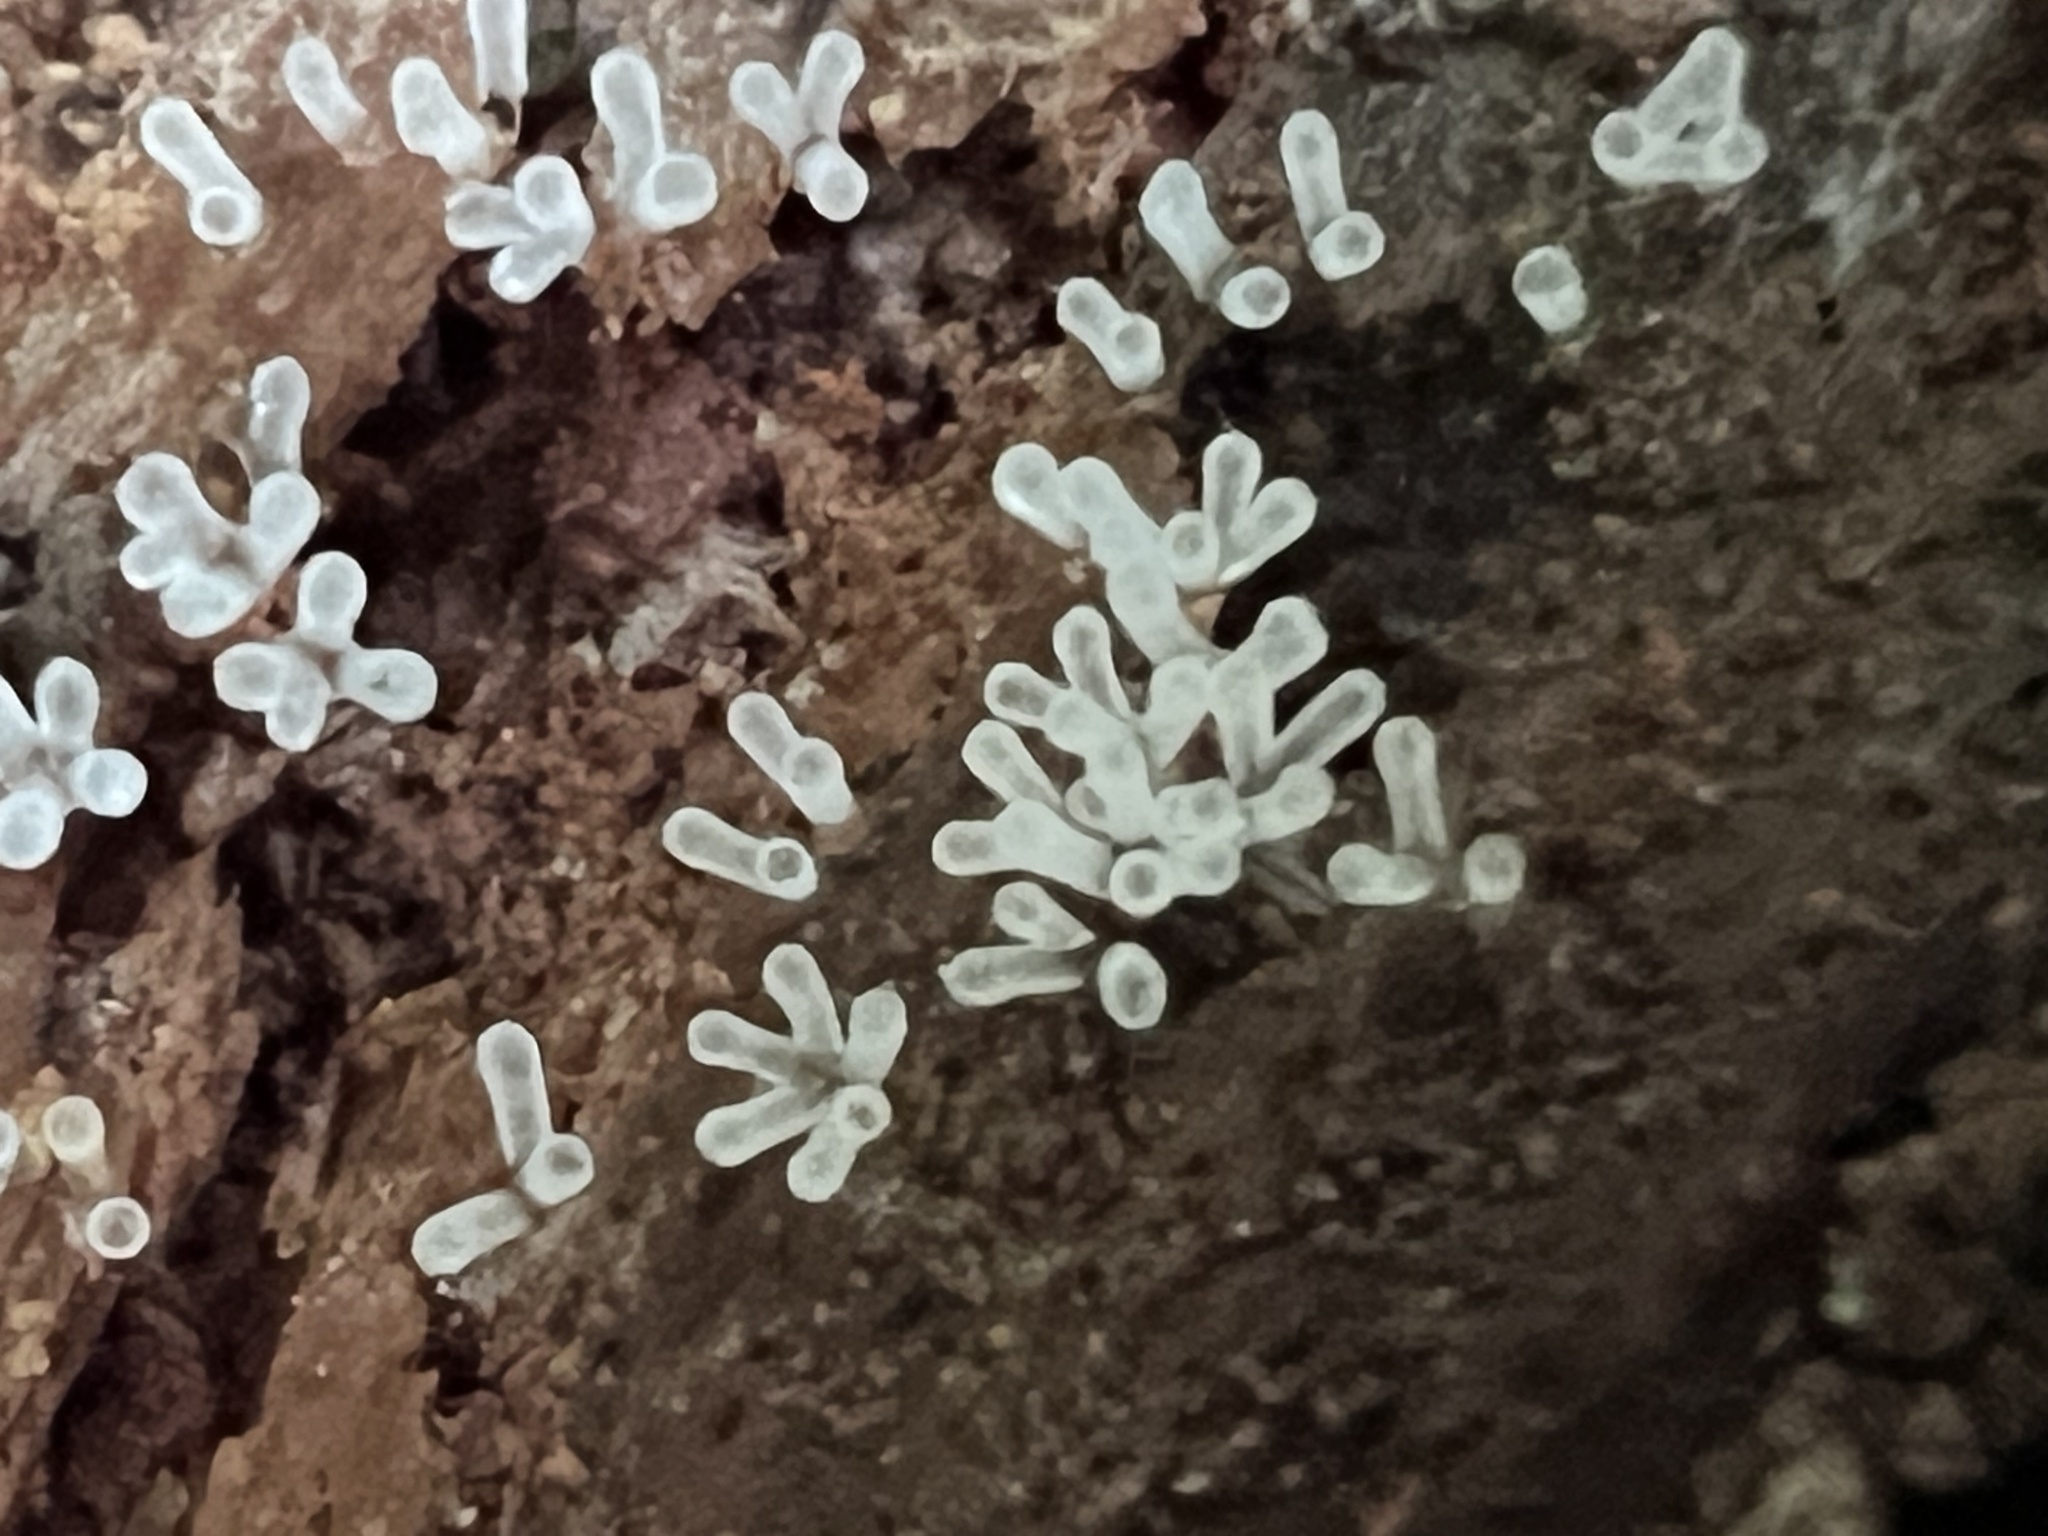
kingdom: Protozoa
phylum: Mycetozoa
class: Protosteliomycetes
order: Ceratiomyxales
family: Ceratiomyxaceae
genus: Ceratiomyxa
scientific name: Ceratiomyxa fruticulosa
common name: Honeycomb coral slime mold
